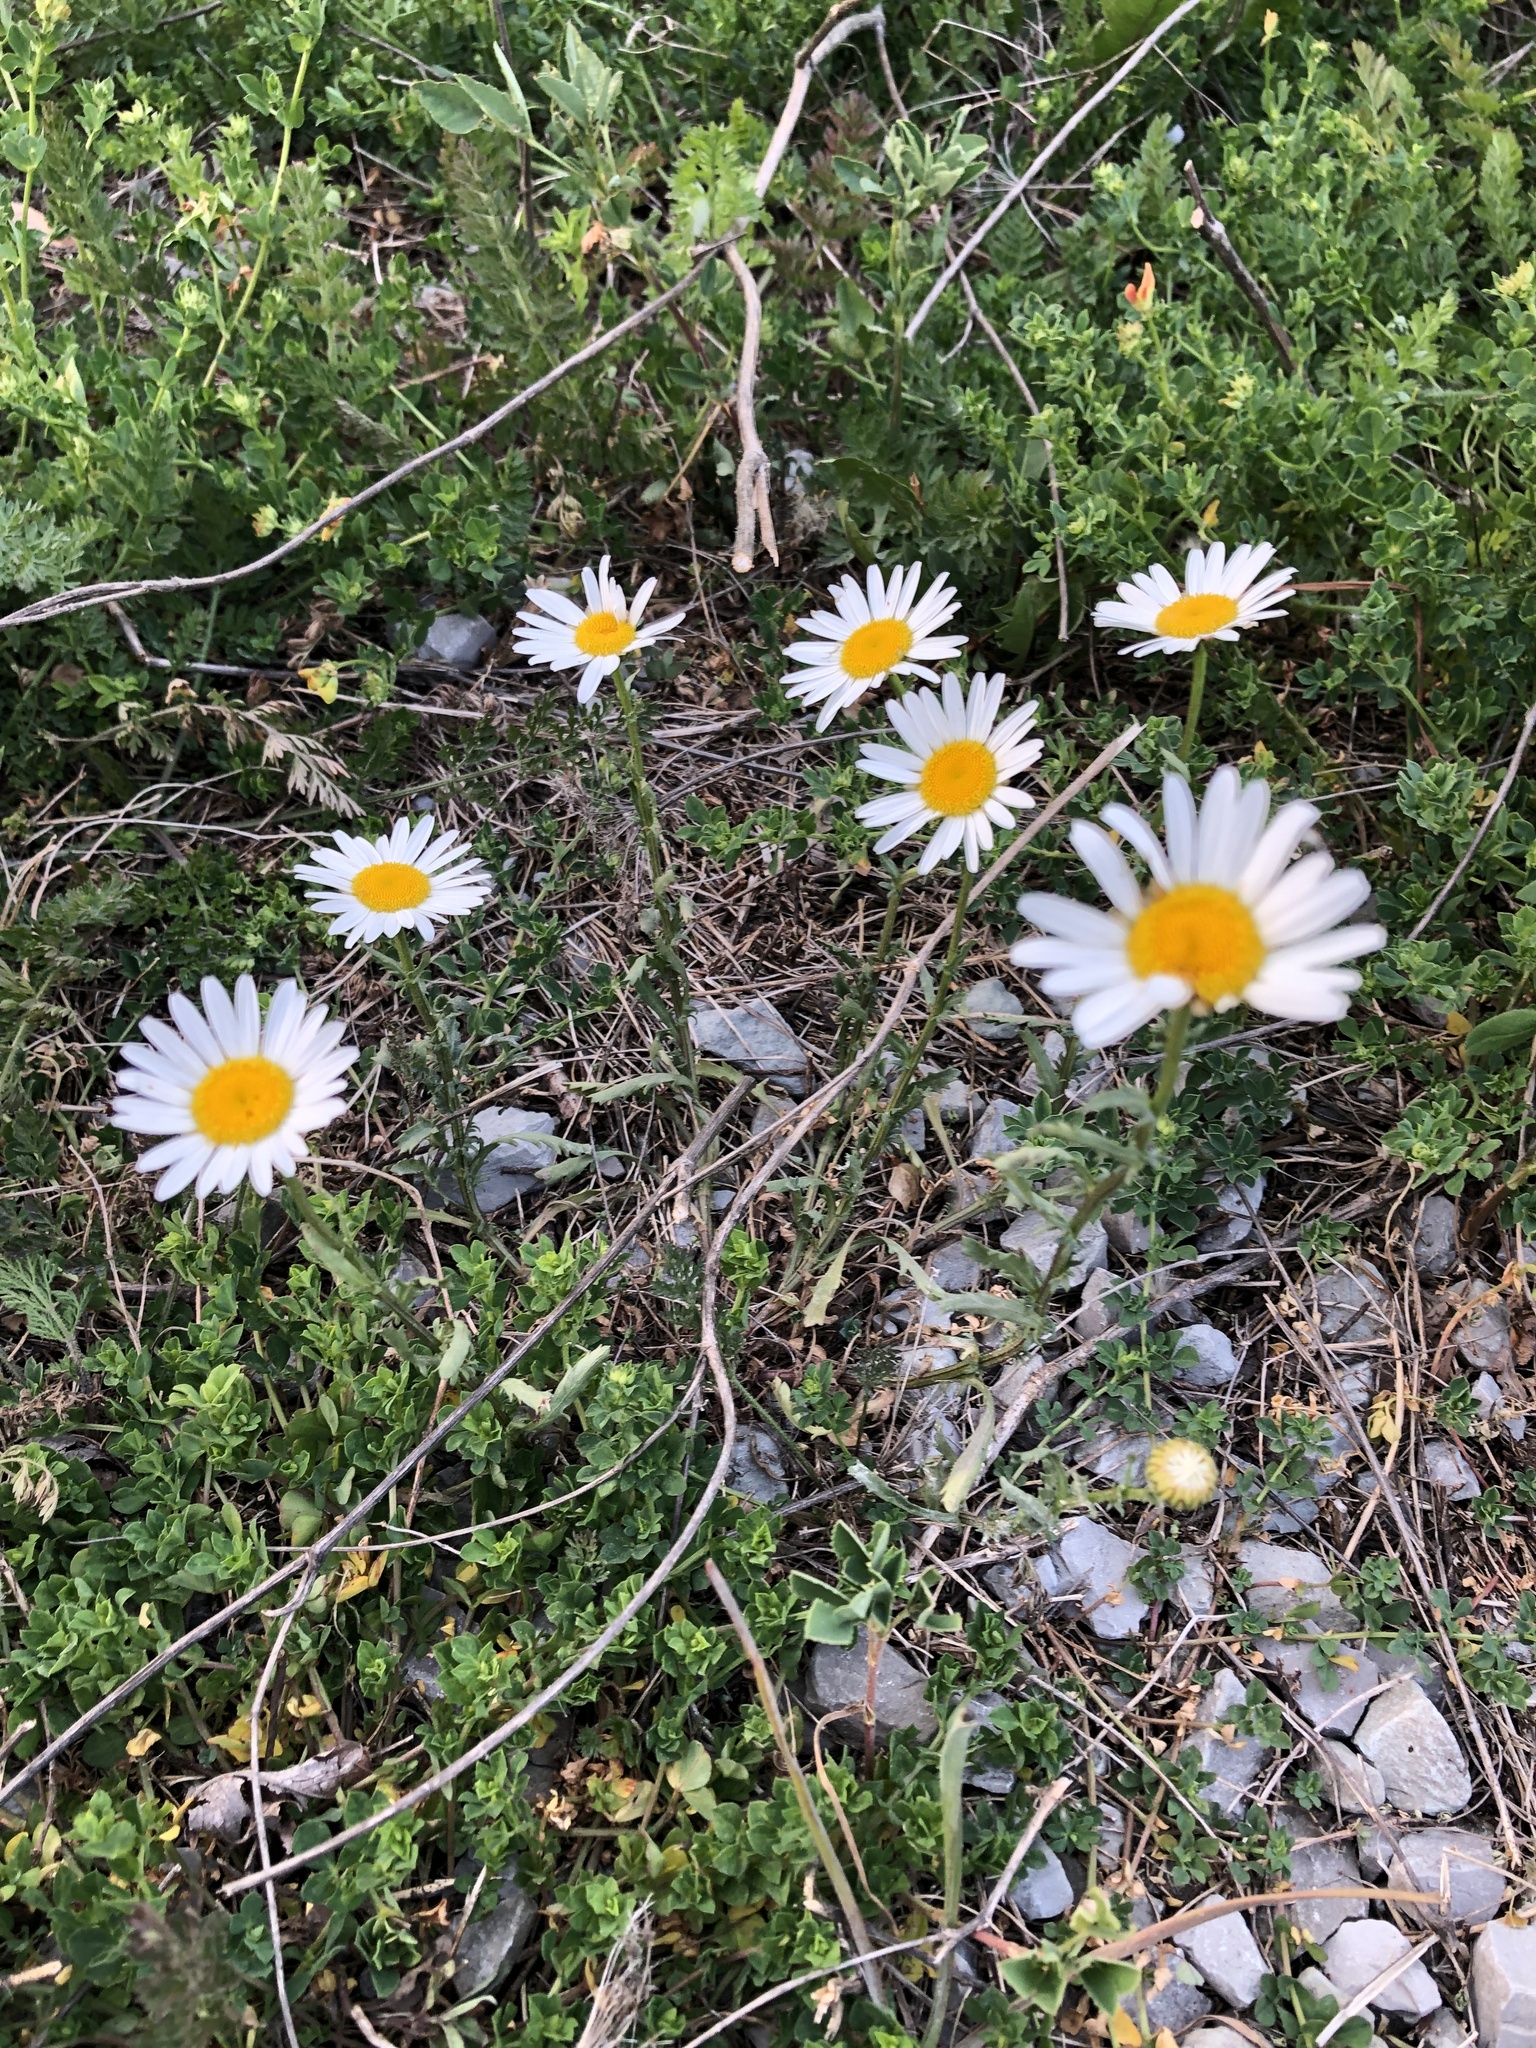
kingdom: Plantae
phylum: Tracheophyta
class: Magnoliopsida
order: Asterales
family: Asteraceae
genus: Leucanthemum
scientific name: Leucanthemum vulgare
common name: Oxeye daisy
